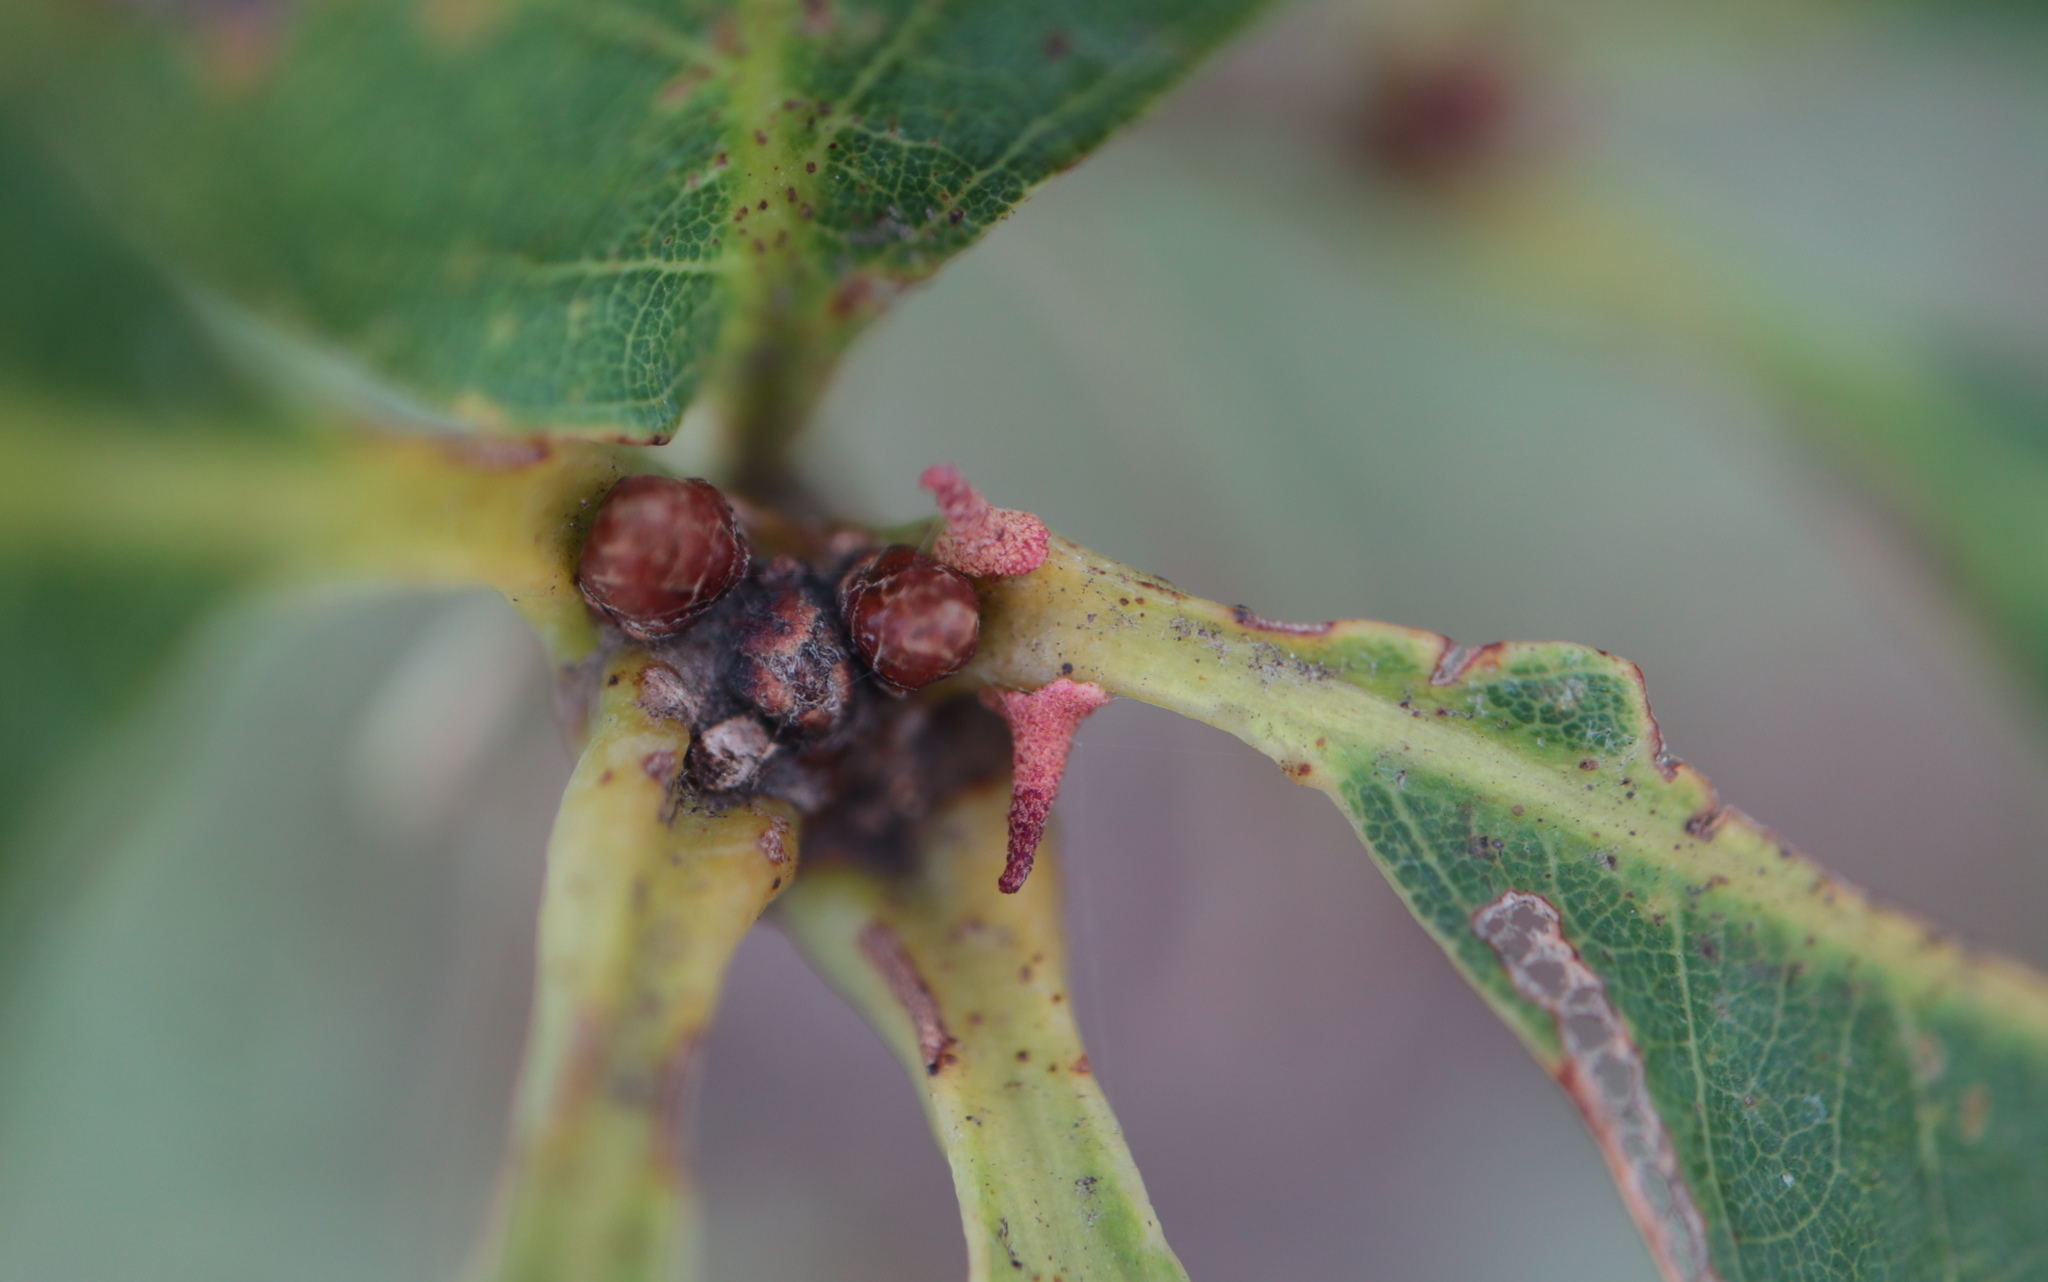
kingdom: Animalia
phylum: Arthropoda
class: Insecta
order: Hymenoptera
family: Cynipidae
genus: Zopheroteras
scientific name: Zopheroteras
